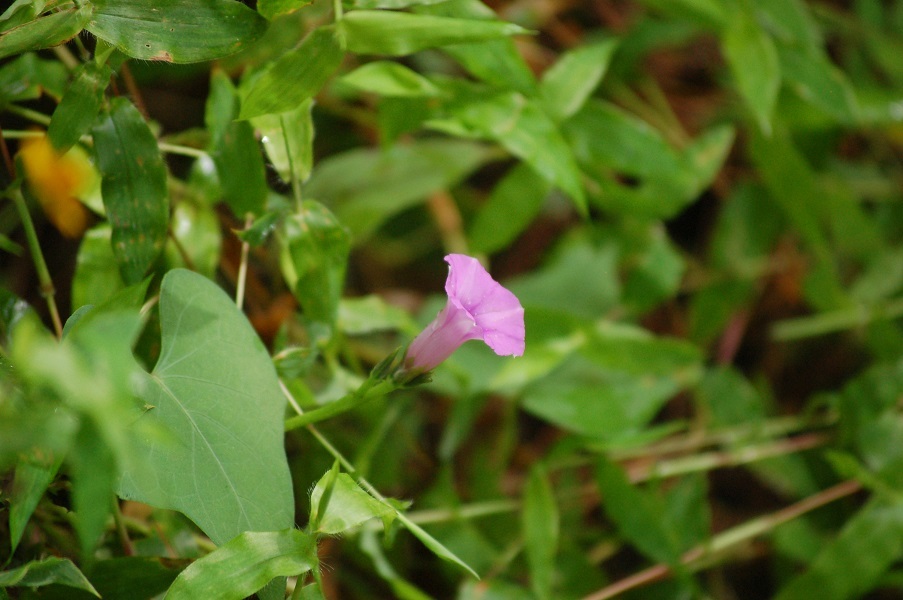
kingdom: Plantae
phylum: Tracheophyta
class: Magnoliopsida
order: Solanales
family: Convolvulaceae
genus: Ipomoea
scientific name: Ipomoea triloba
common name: Little-bell
